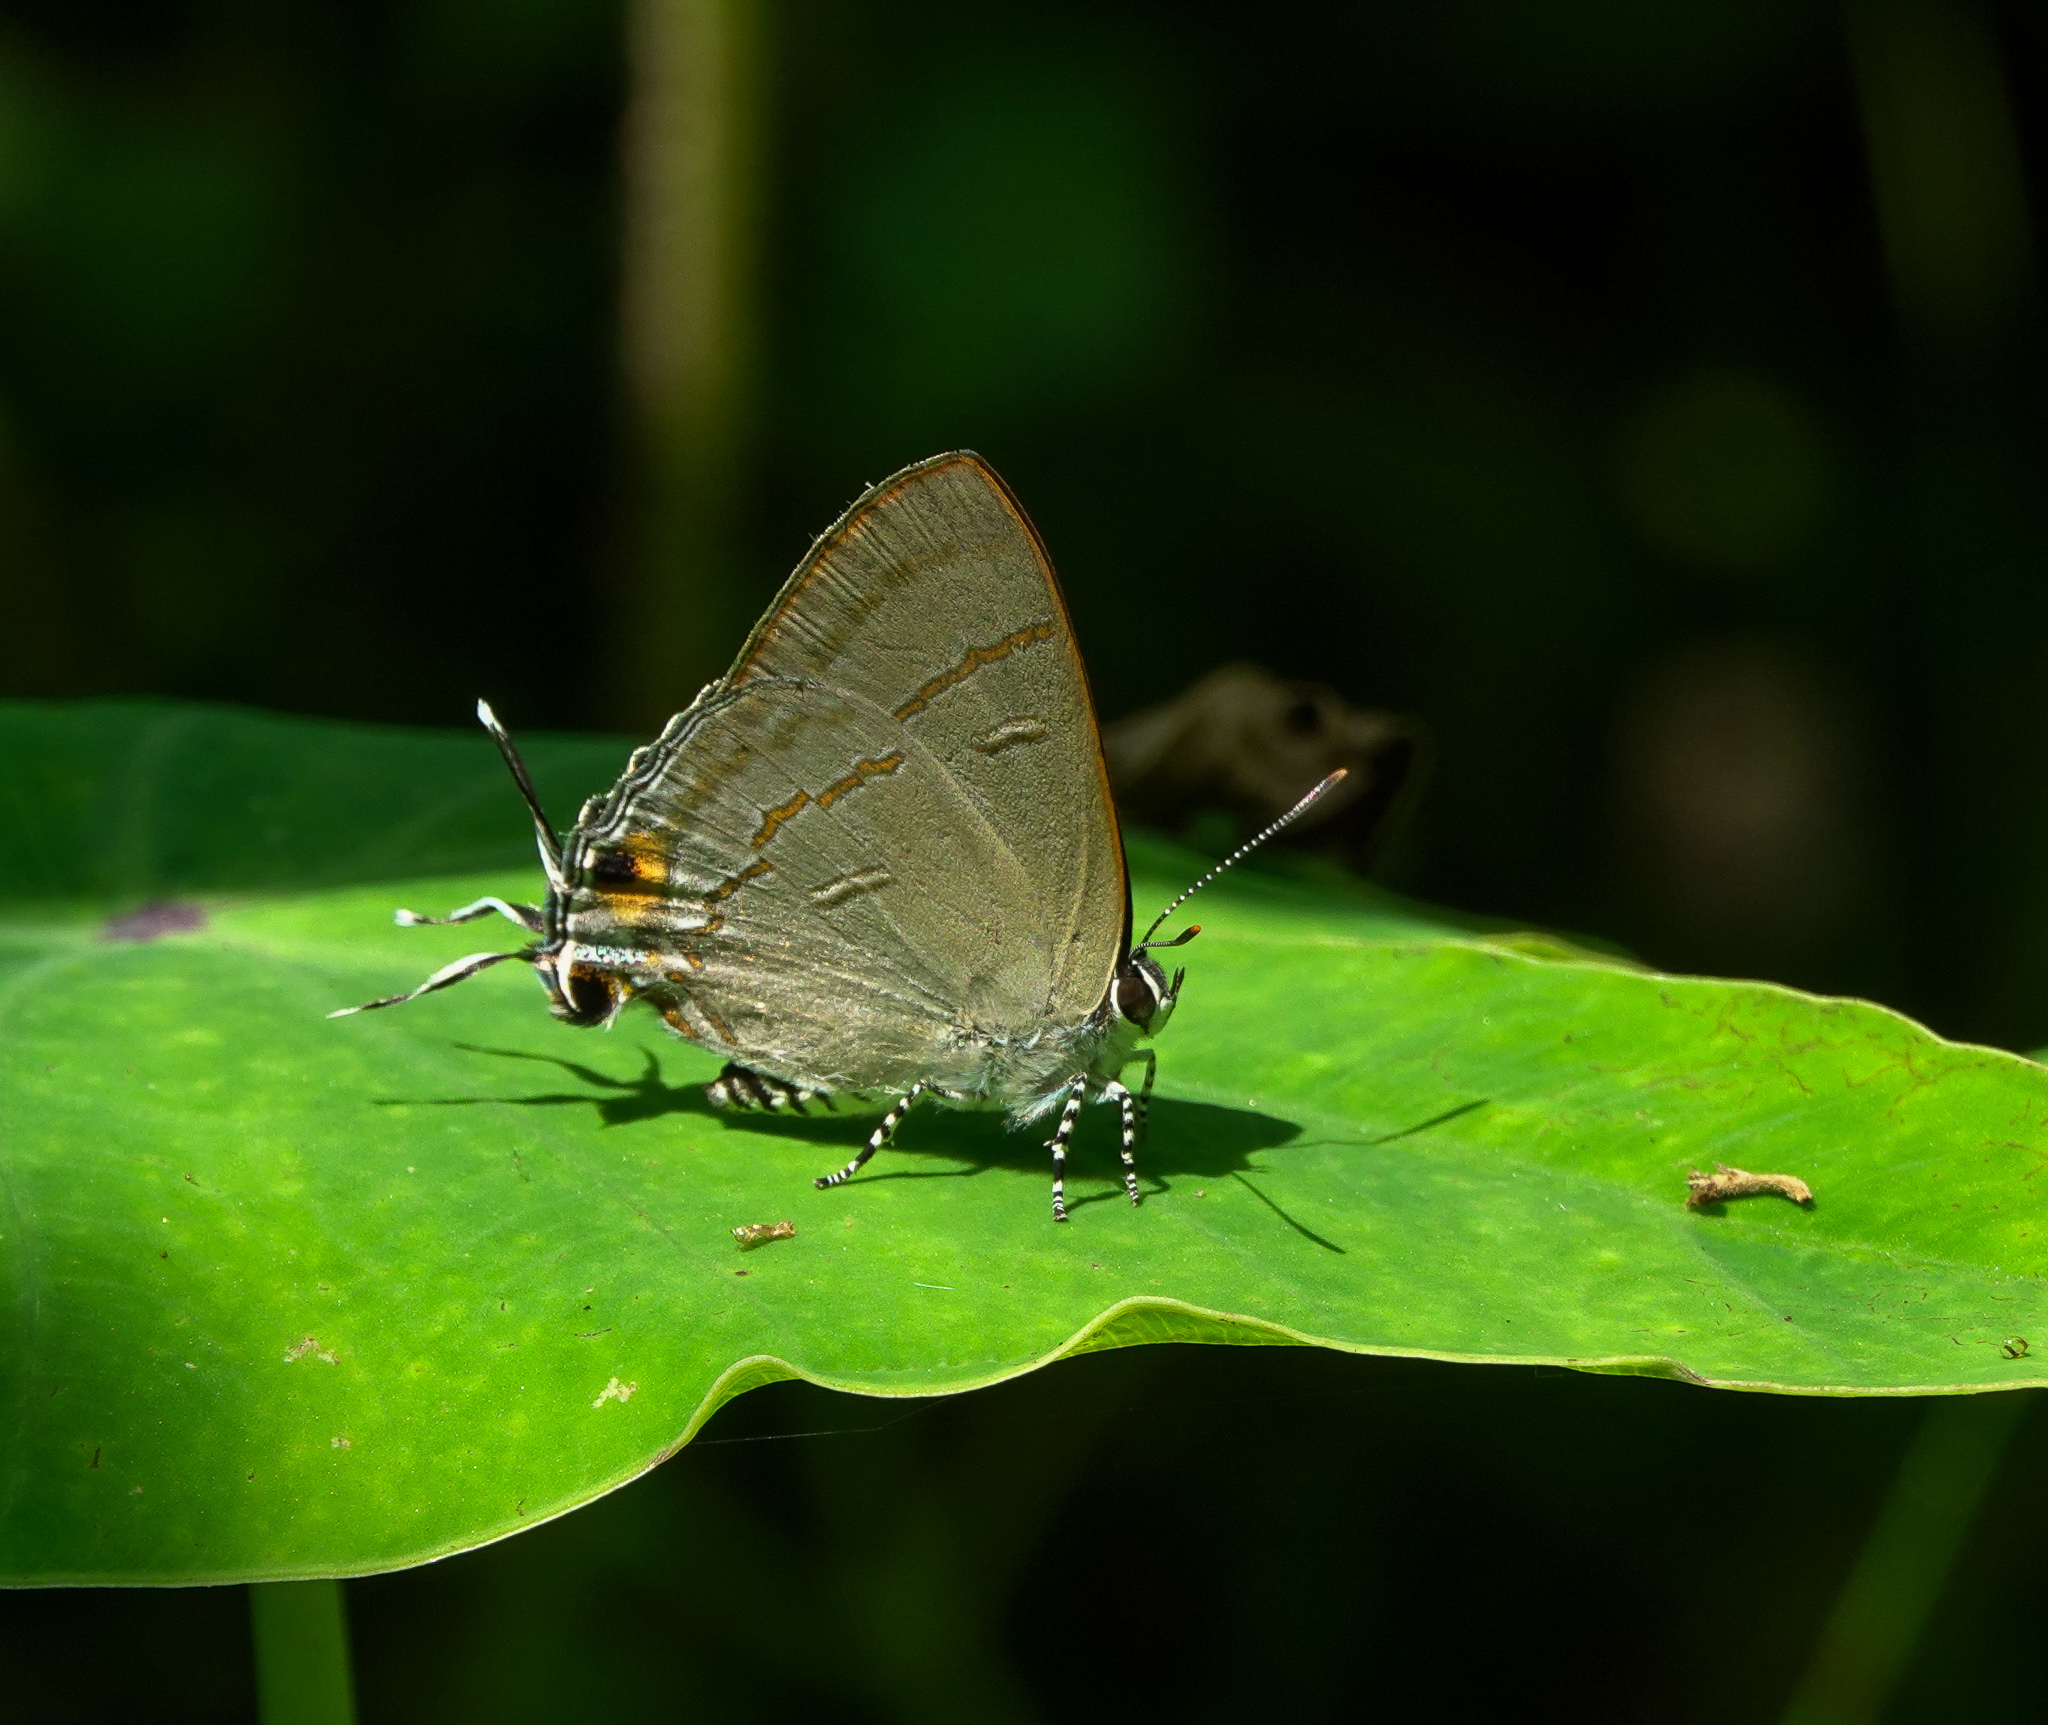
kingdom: Animalia
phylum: Arthropoda
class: Insecta
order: Lepidoptera
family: Lycaenidae
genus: Hypolycaena
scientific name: Hypolycaena erylus
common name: Common tit
